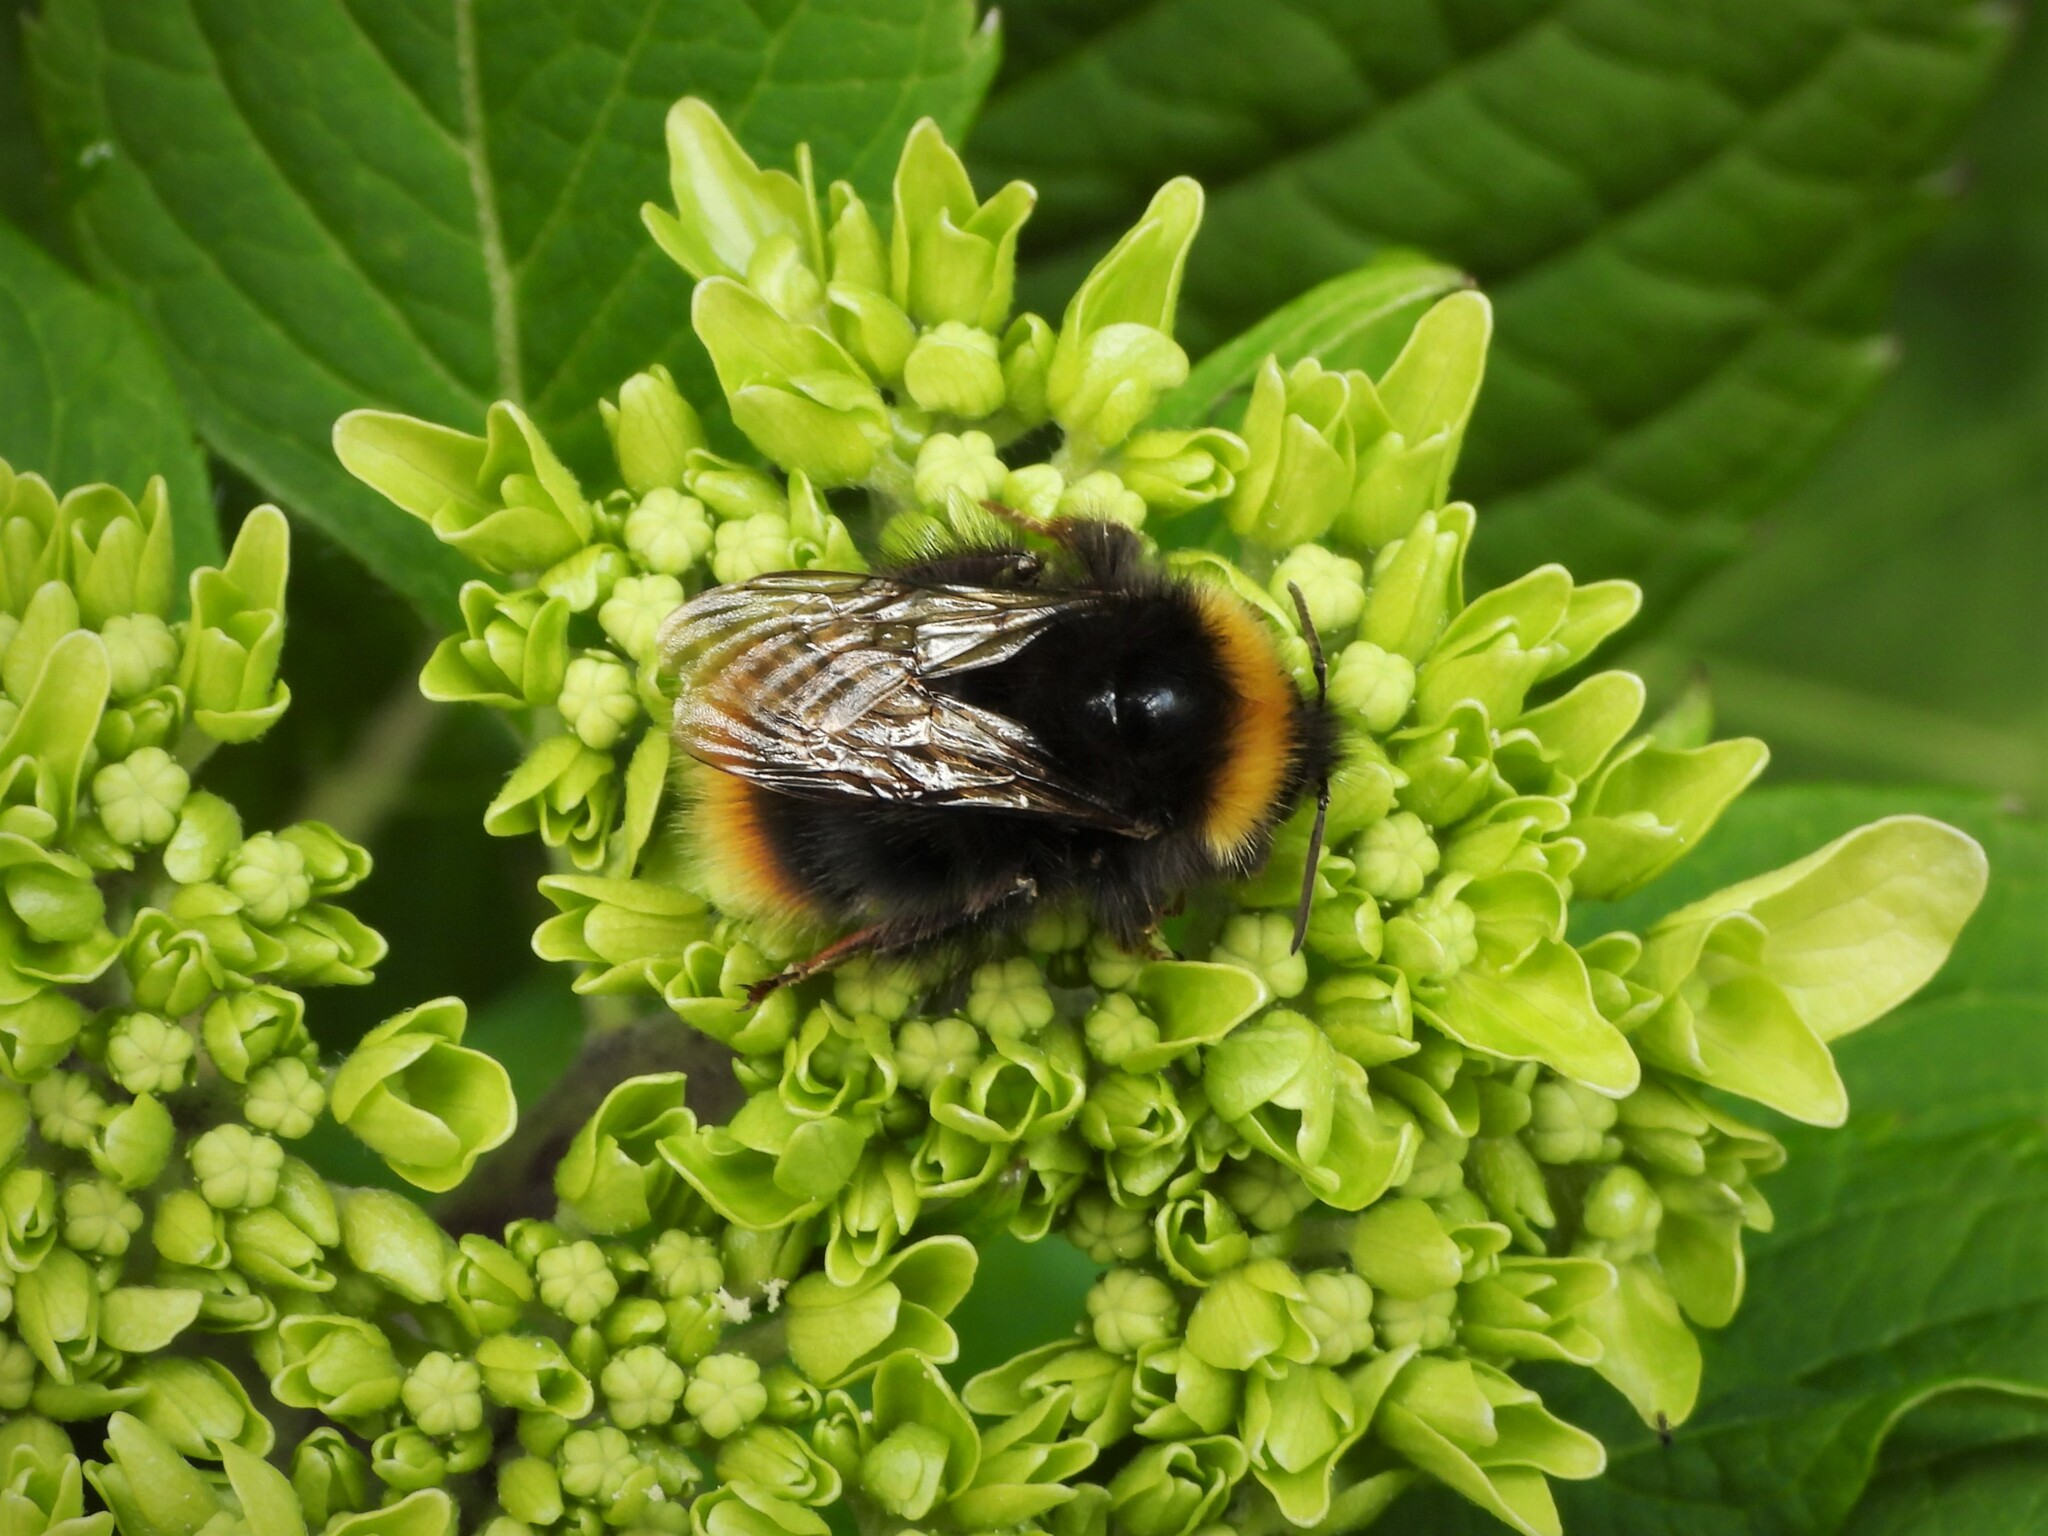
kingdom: Animalia
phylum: Arthropoda
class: Insecta
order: Hymenoptera
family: Apidae
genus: Bombus
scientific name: Bombus pratorum
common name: Early humble-bee
